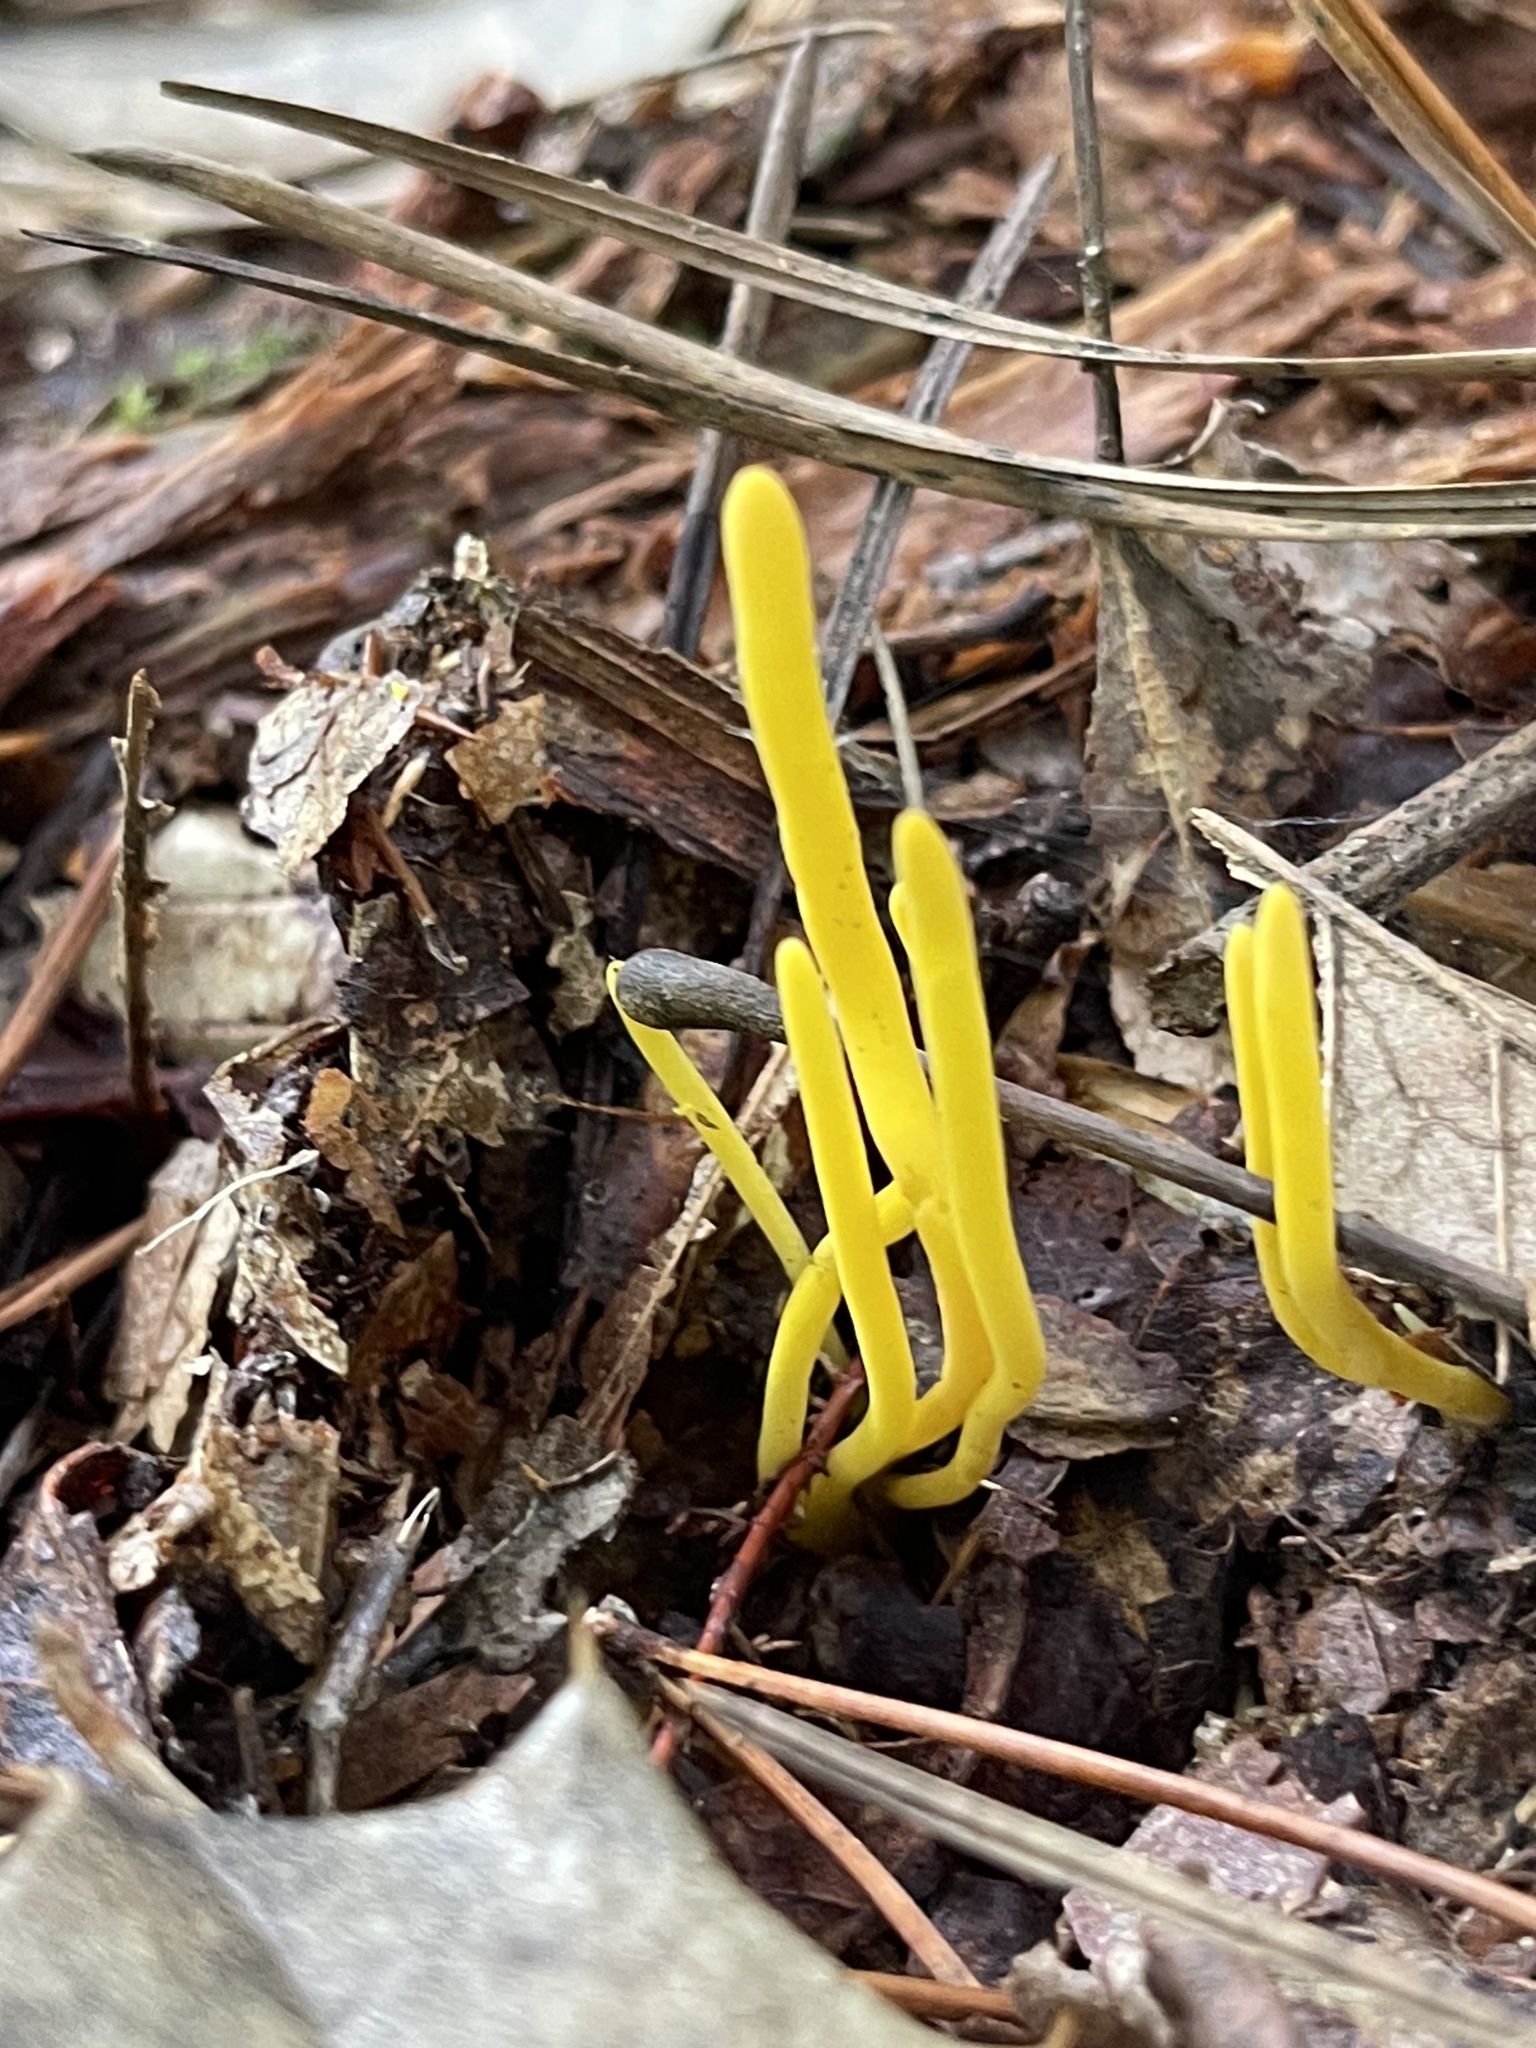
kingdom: Fungi
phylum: Basidiomycota
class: Agaricomycetes
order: Agaricales
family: Clavariaceae
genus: Clavulinopsis
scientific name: Clavulinopsis fusiformis
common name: Golden spindles
